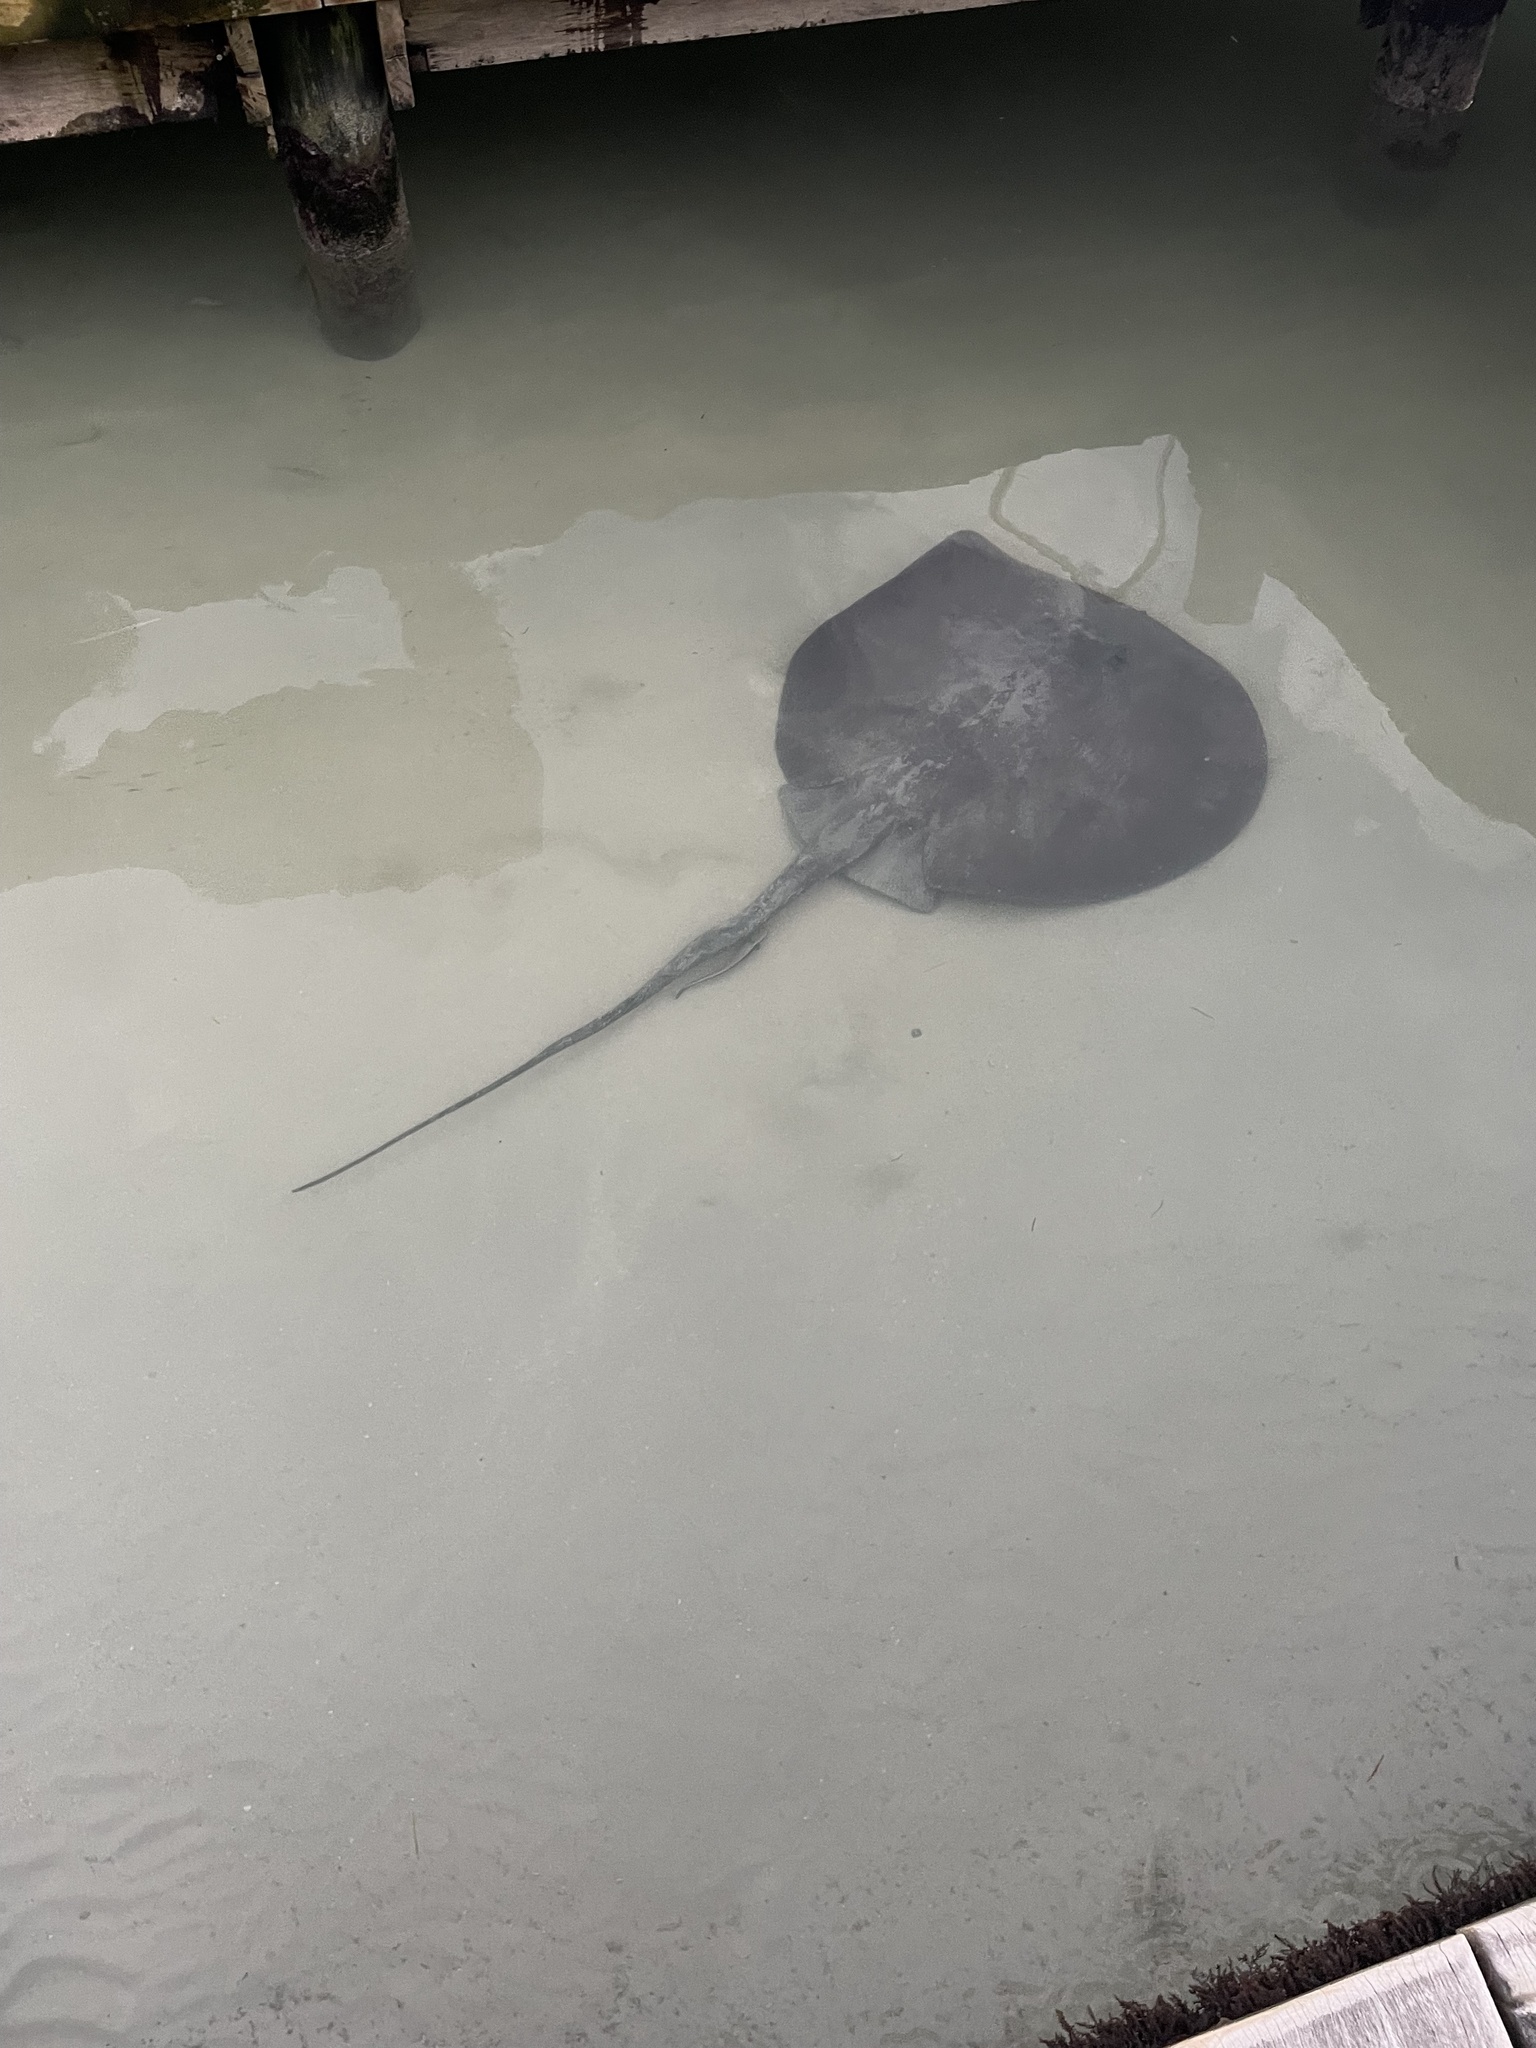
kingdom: Animalia
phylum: Chordata
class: Elasmobranchii
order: Myliobatiformes
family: Potamotrygonidae
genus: Styracura
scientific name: Styracura schmardae
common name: Atlantic chupare
